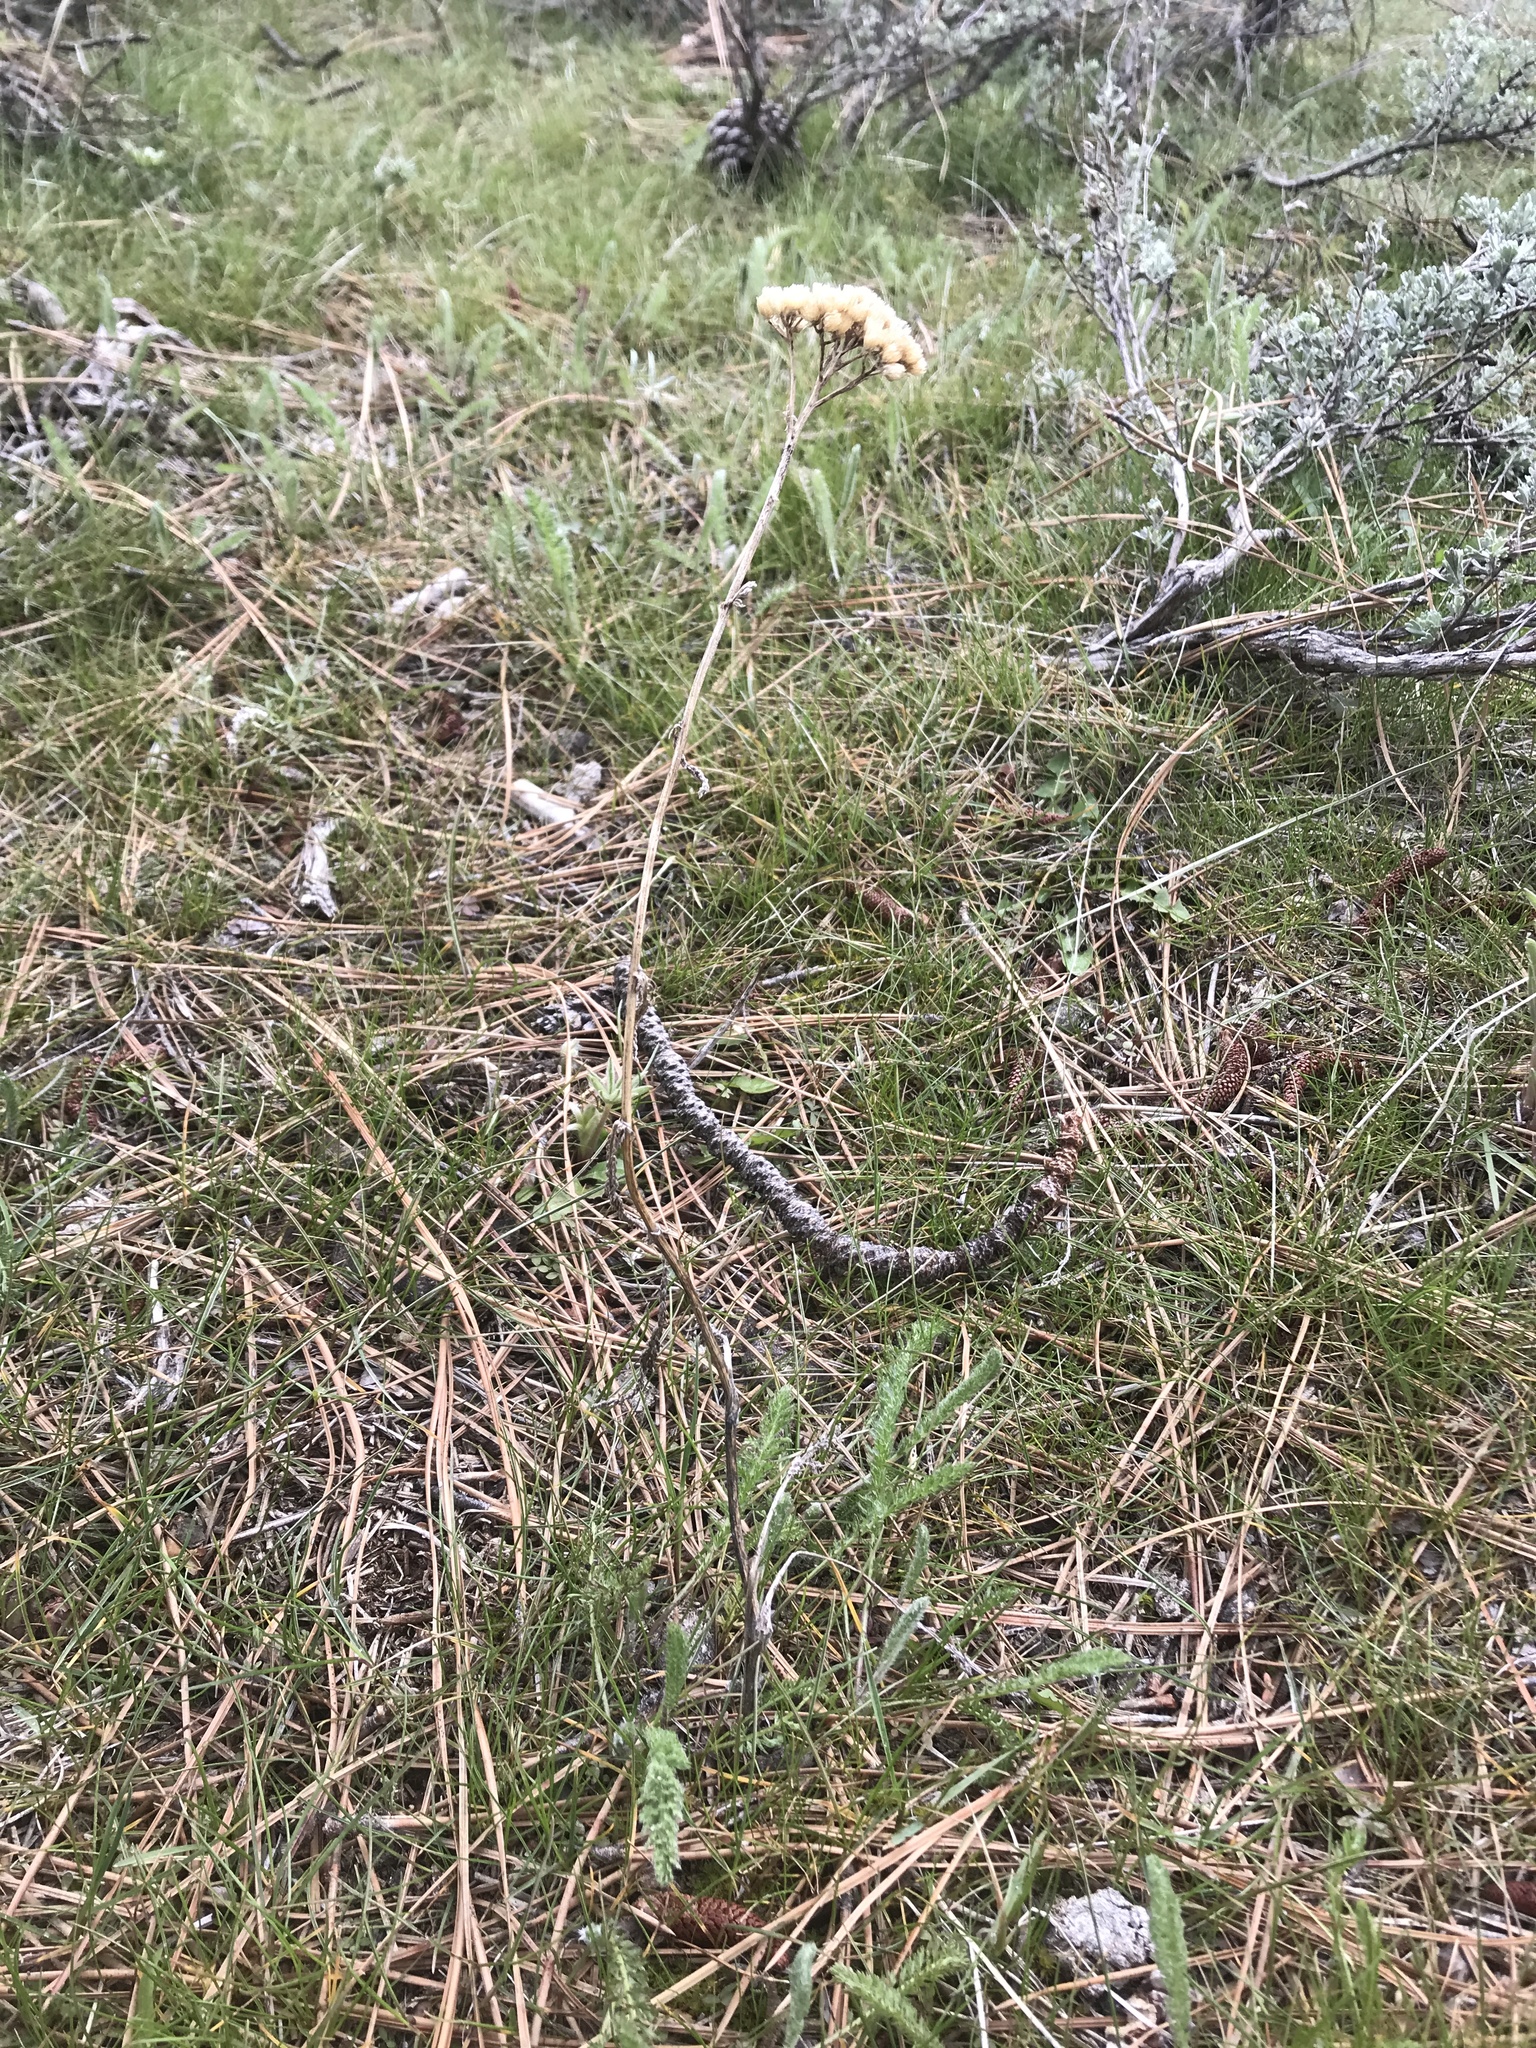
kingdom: Plantae
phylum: Tracheophyta
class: Magnoliopsida
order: Asterales
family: Asteraceae
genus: Achillea
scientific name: Achillea millefolium
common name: Yarrow
